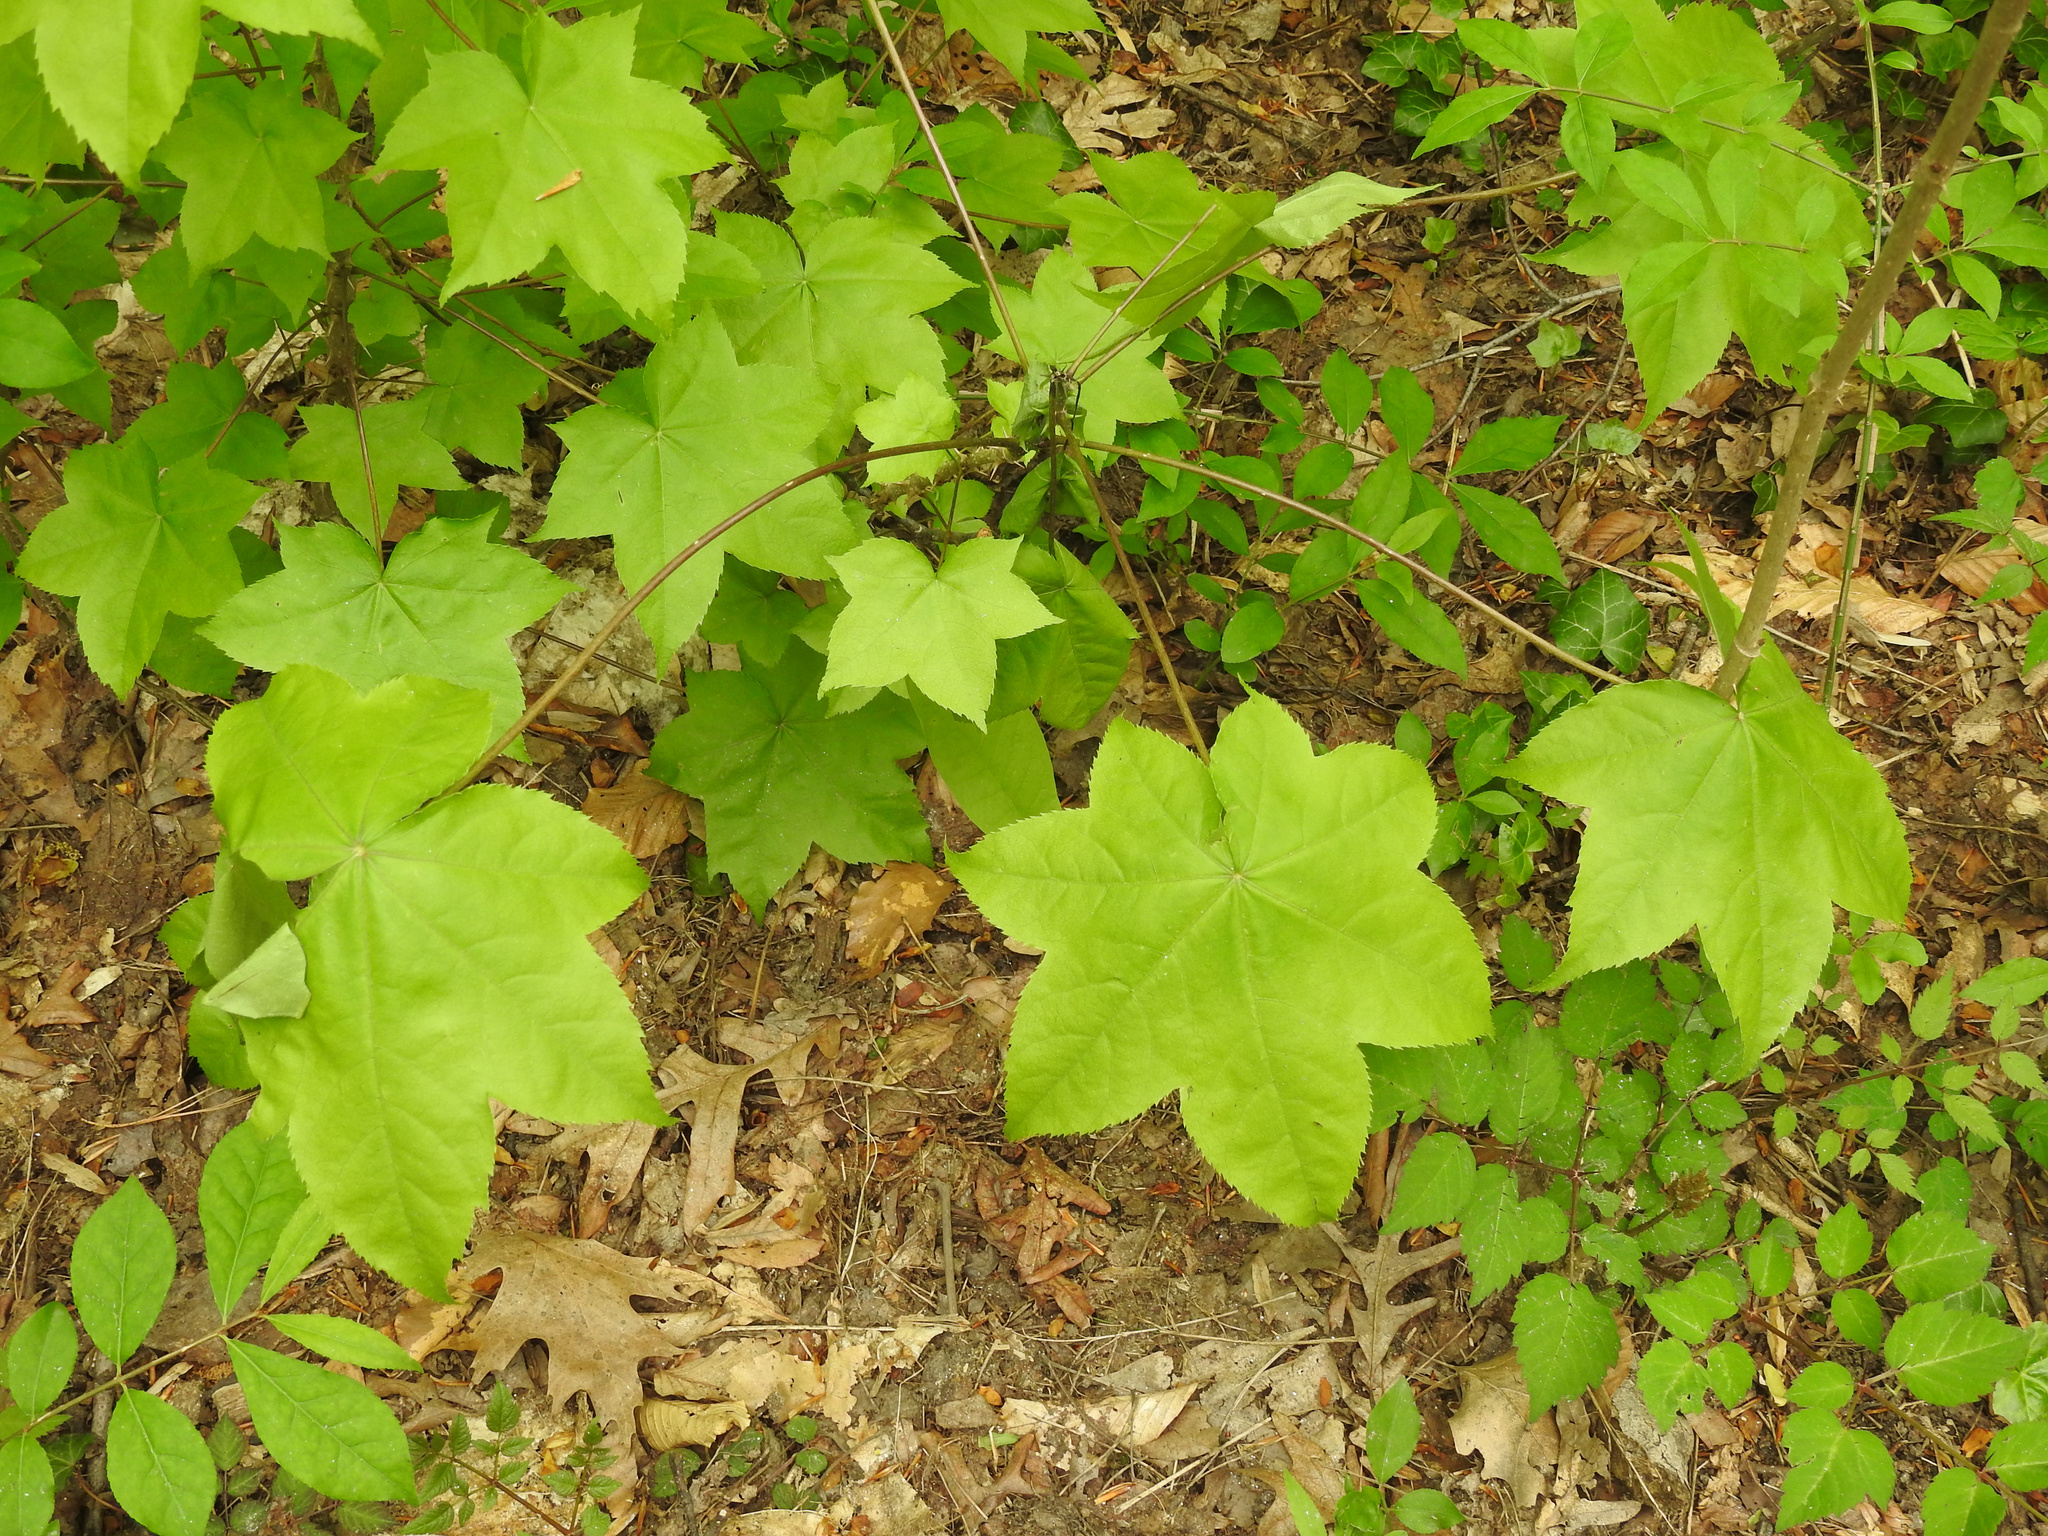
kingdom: Plantae
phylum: Tracheophyta
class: Magnoliopsida
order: Apiales
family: Araliaceae
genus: Kalopanax
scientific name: Kalopanax septemlobus
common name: Castor aralia
